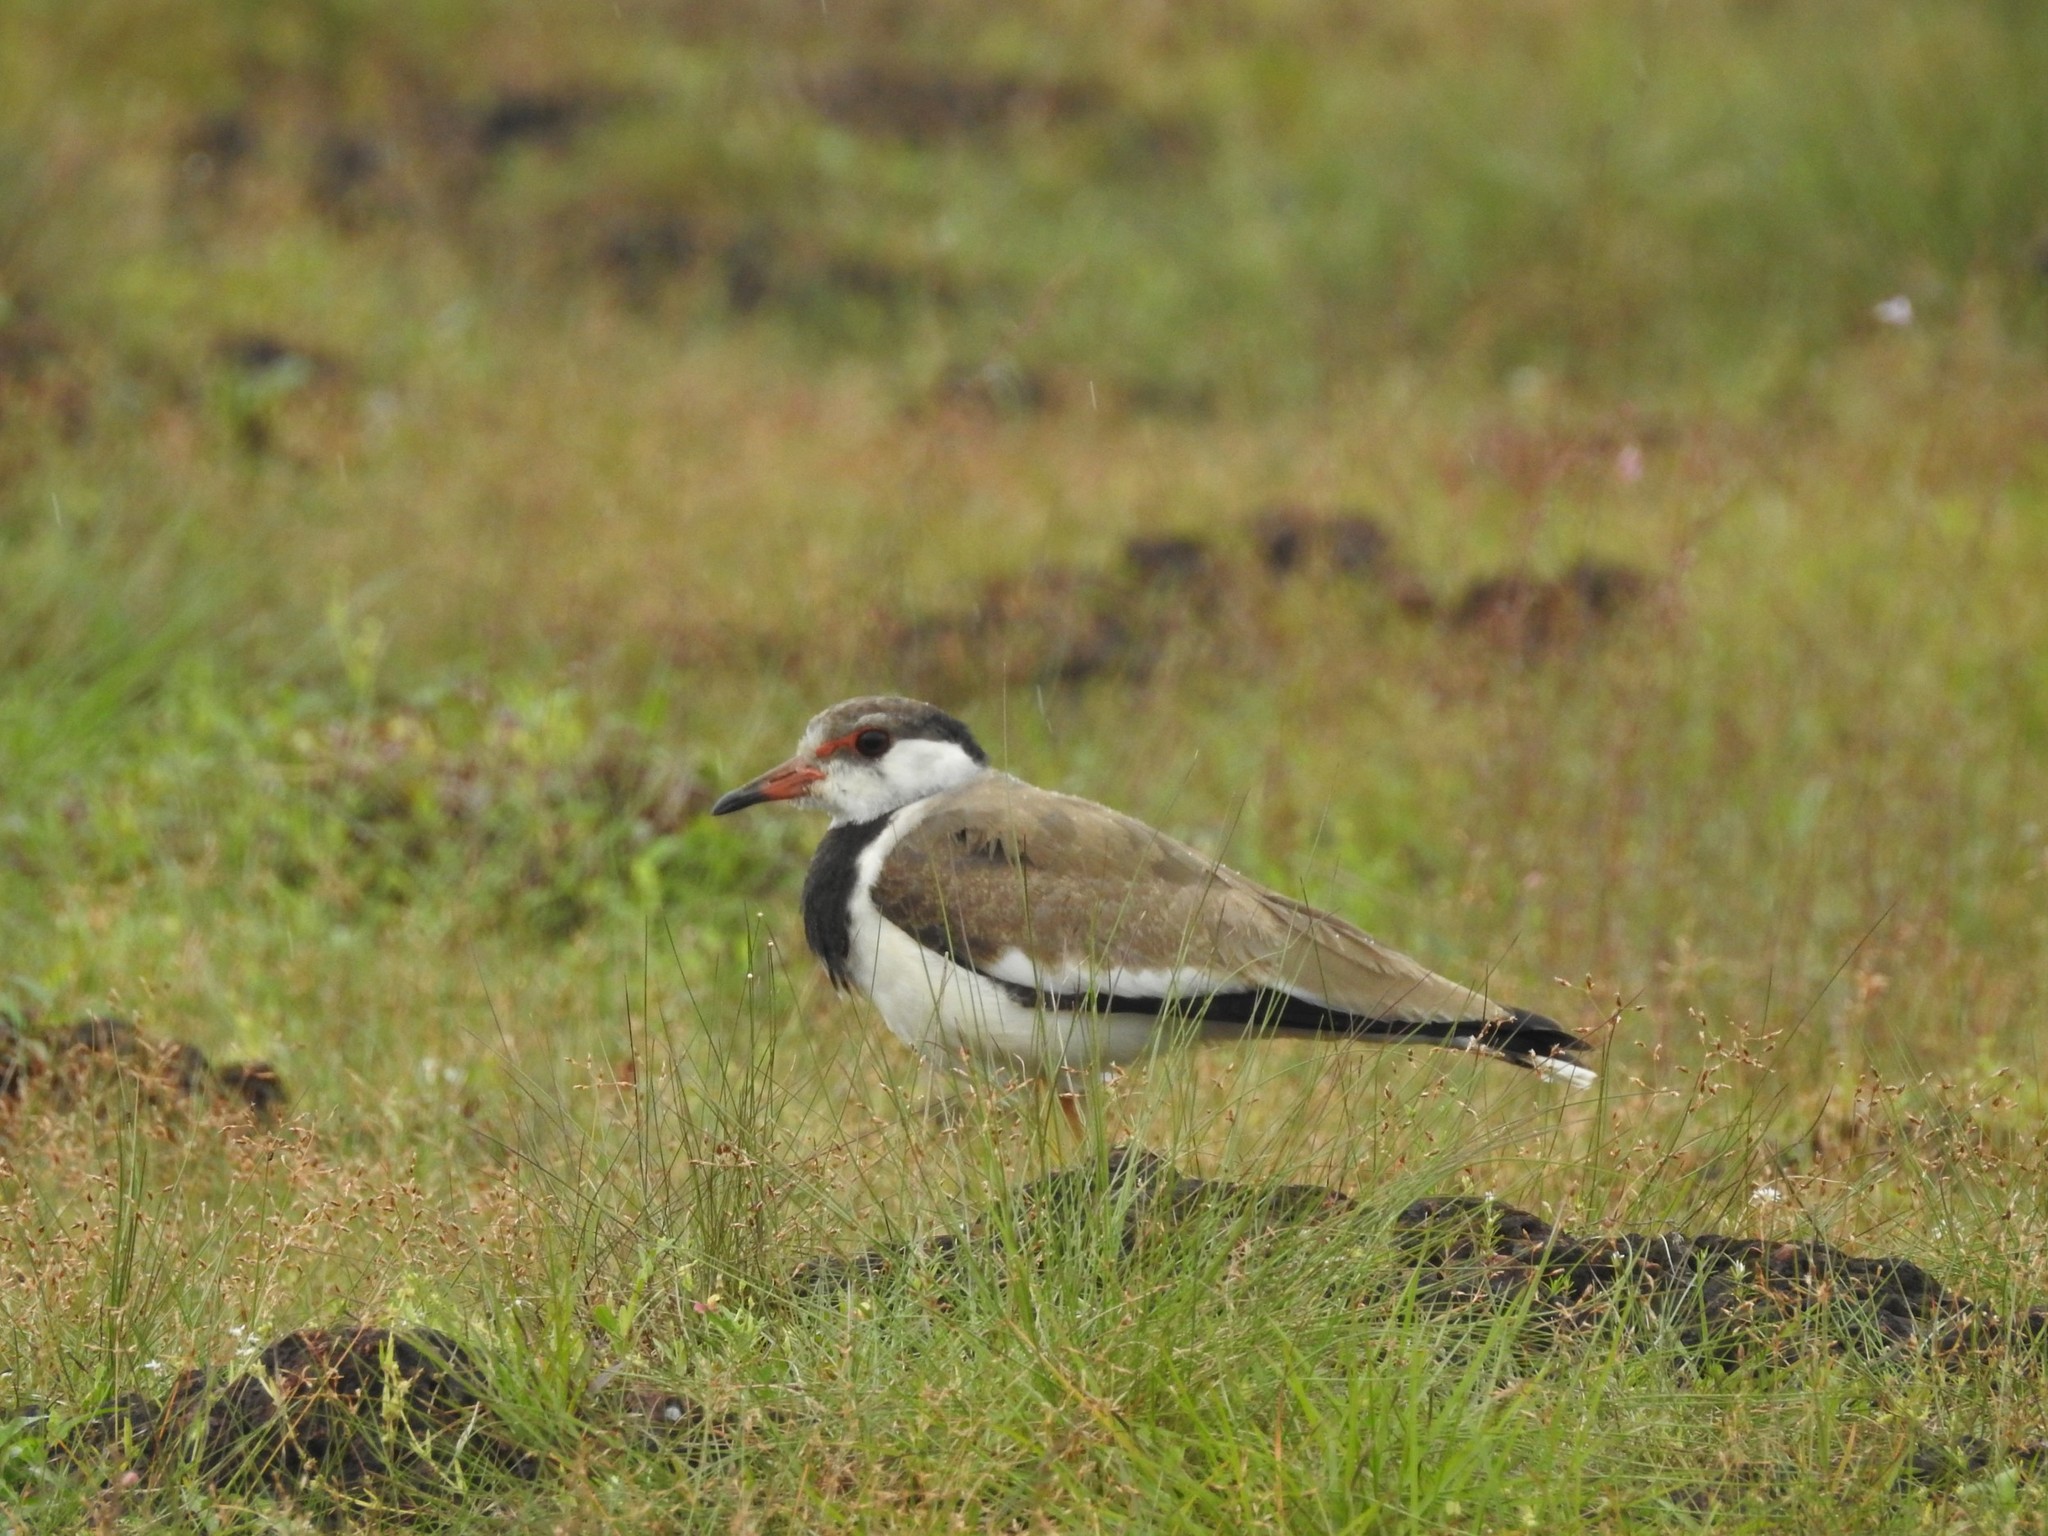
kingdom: Animalia
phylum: Chordata
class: Aves
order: Charadriiformes
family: Charadriidae
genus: Vanellus
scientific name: Vanellus indicus
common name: Red-wattled lapwing
